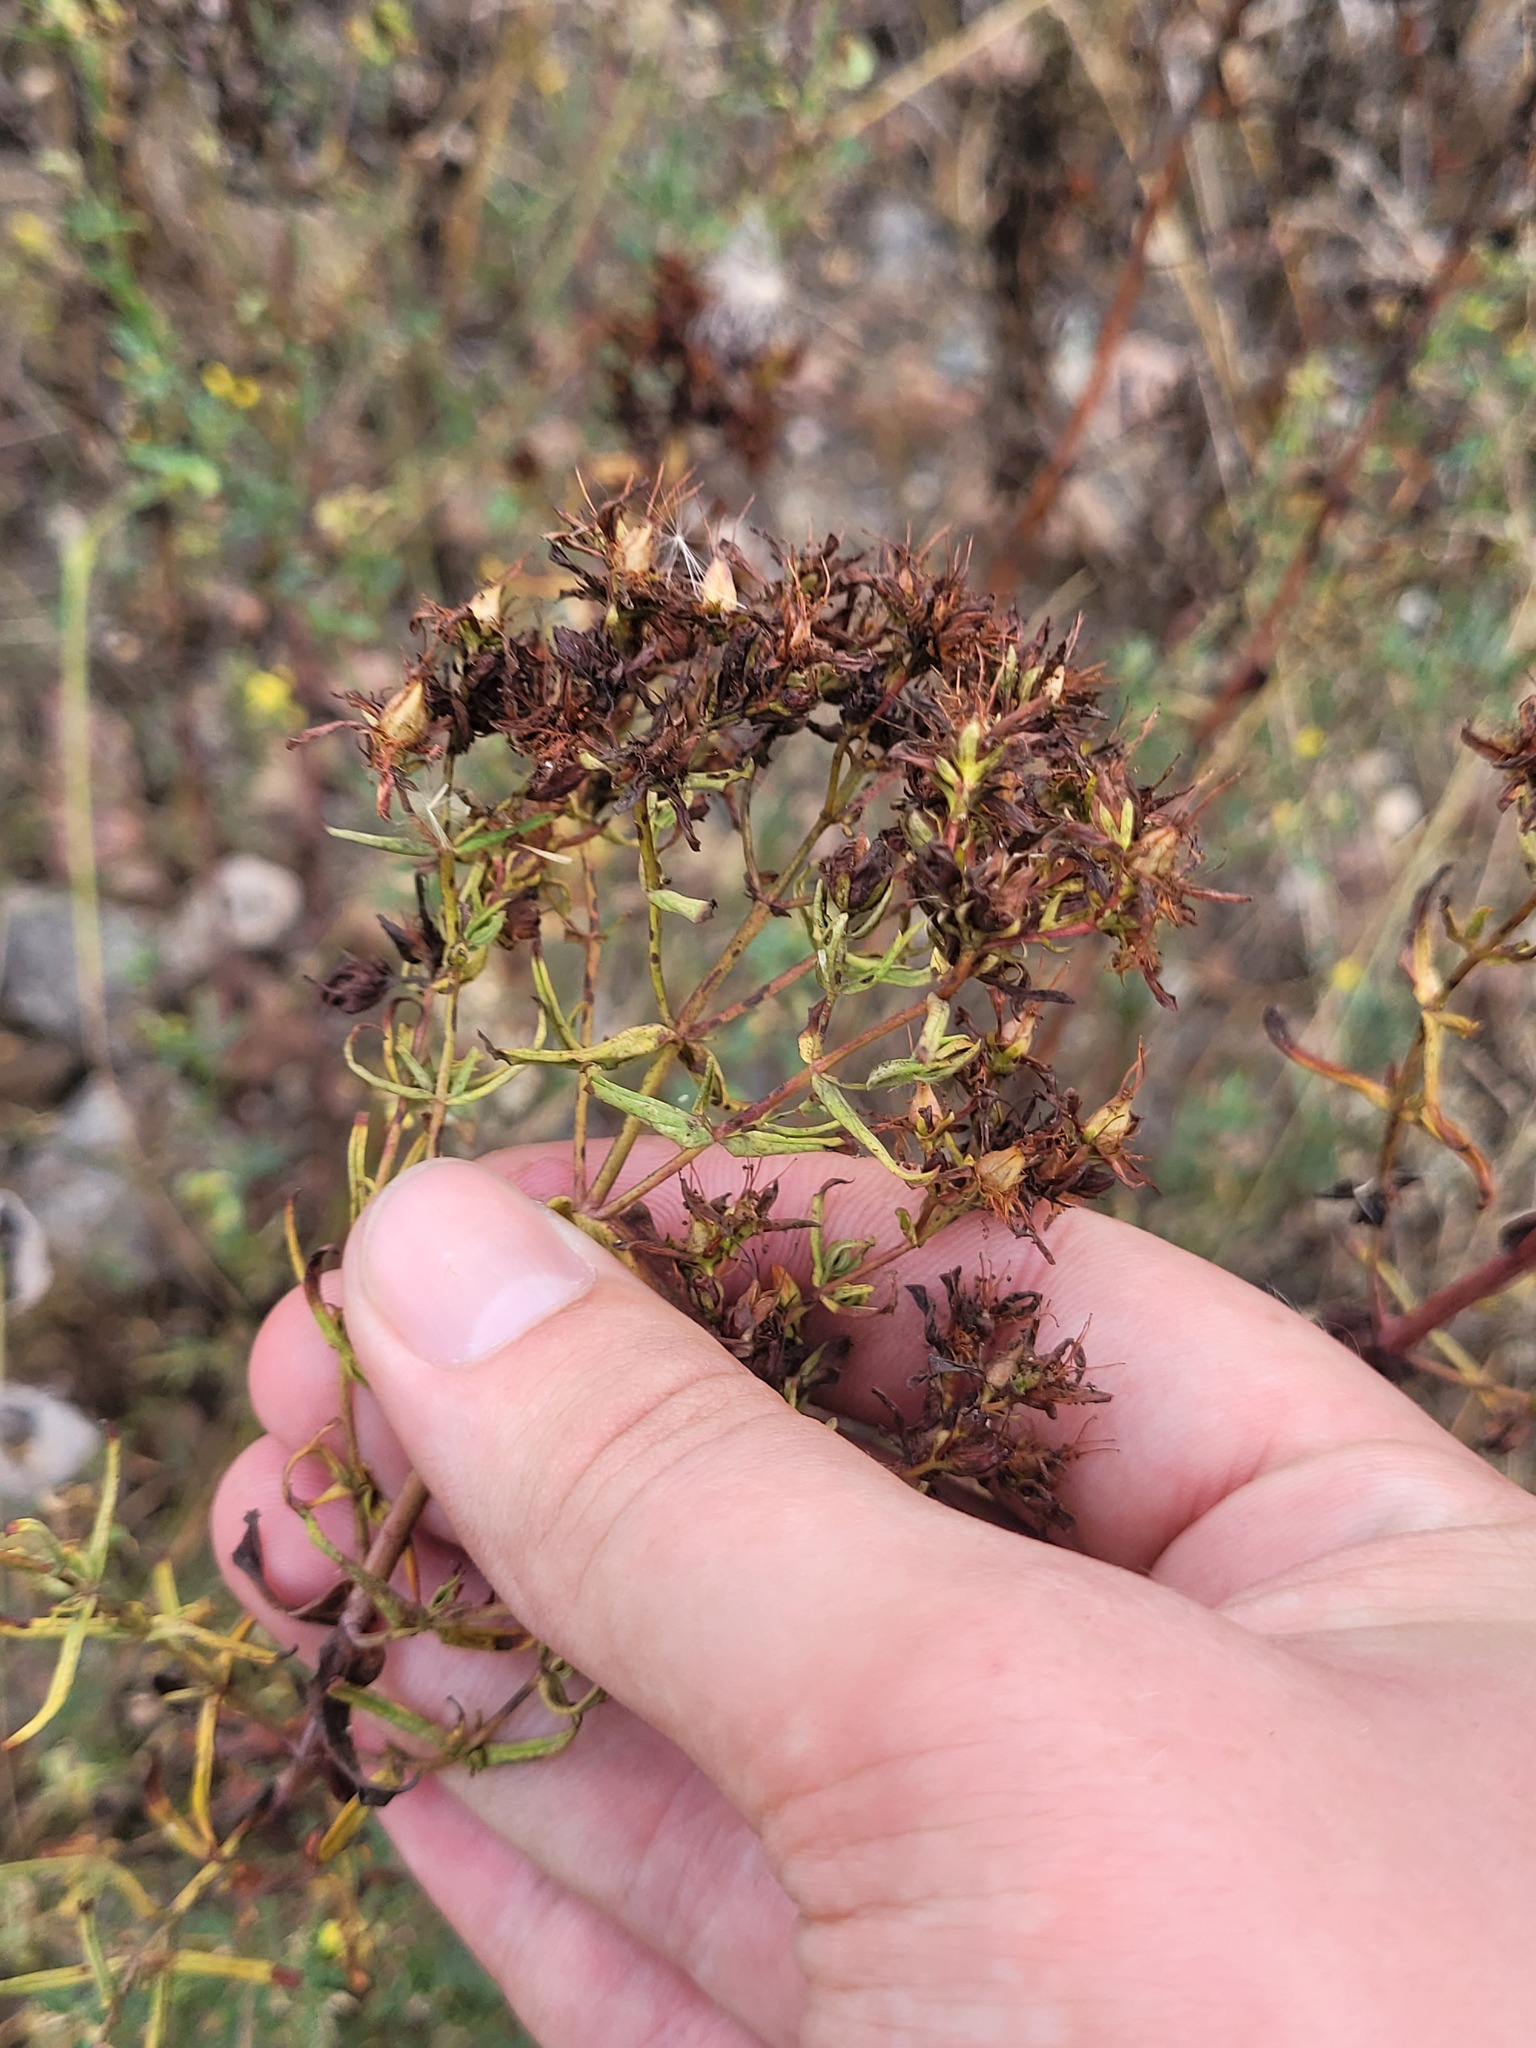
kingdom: Plantae
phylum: Tracheophyta
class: Magnoliopsida
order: Malpighiales
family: Hypericaceae
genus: Hypericum
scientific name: Hypericum perforatum
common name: Common st. johnswort
